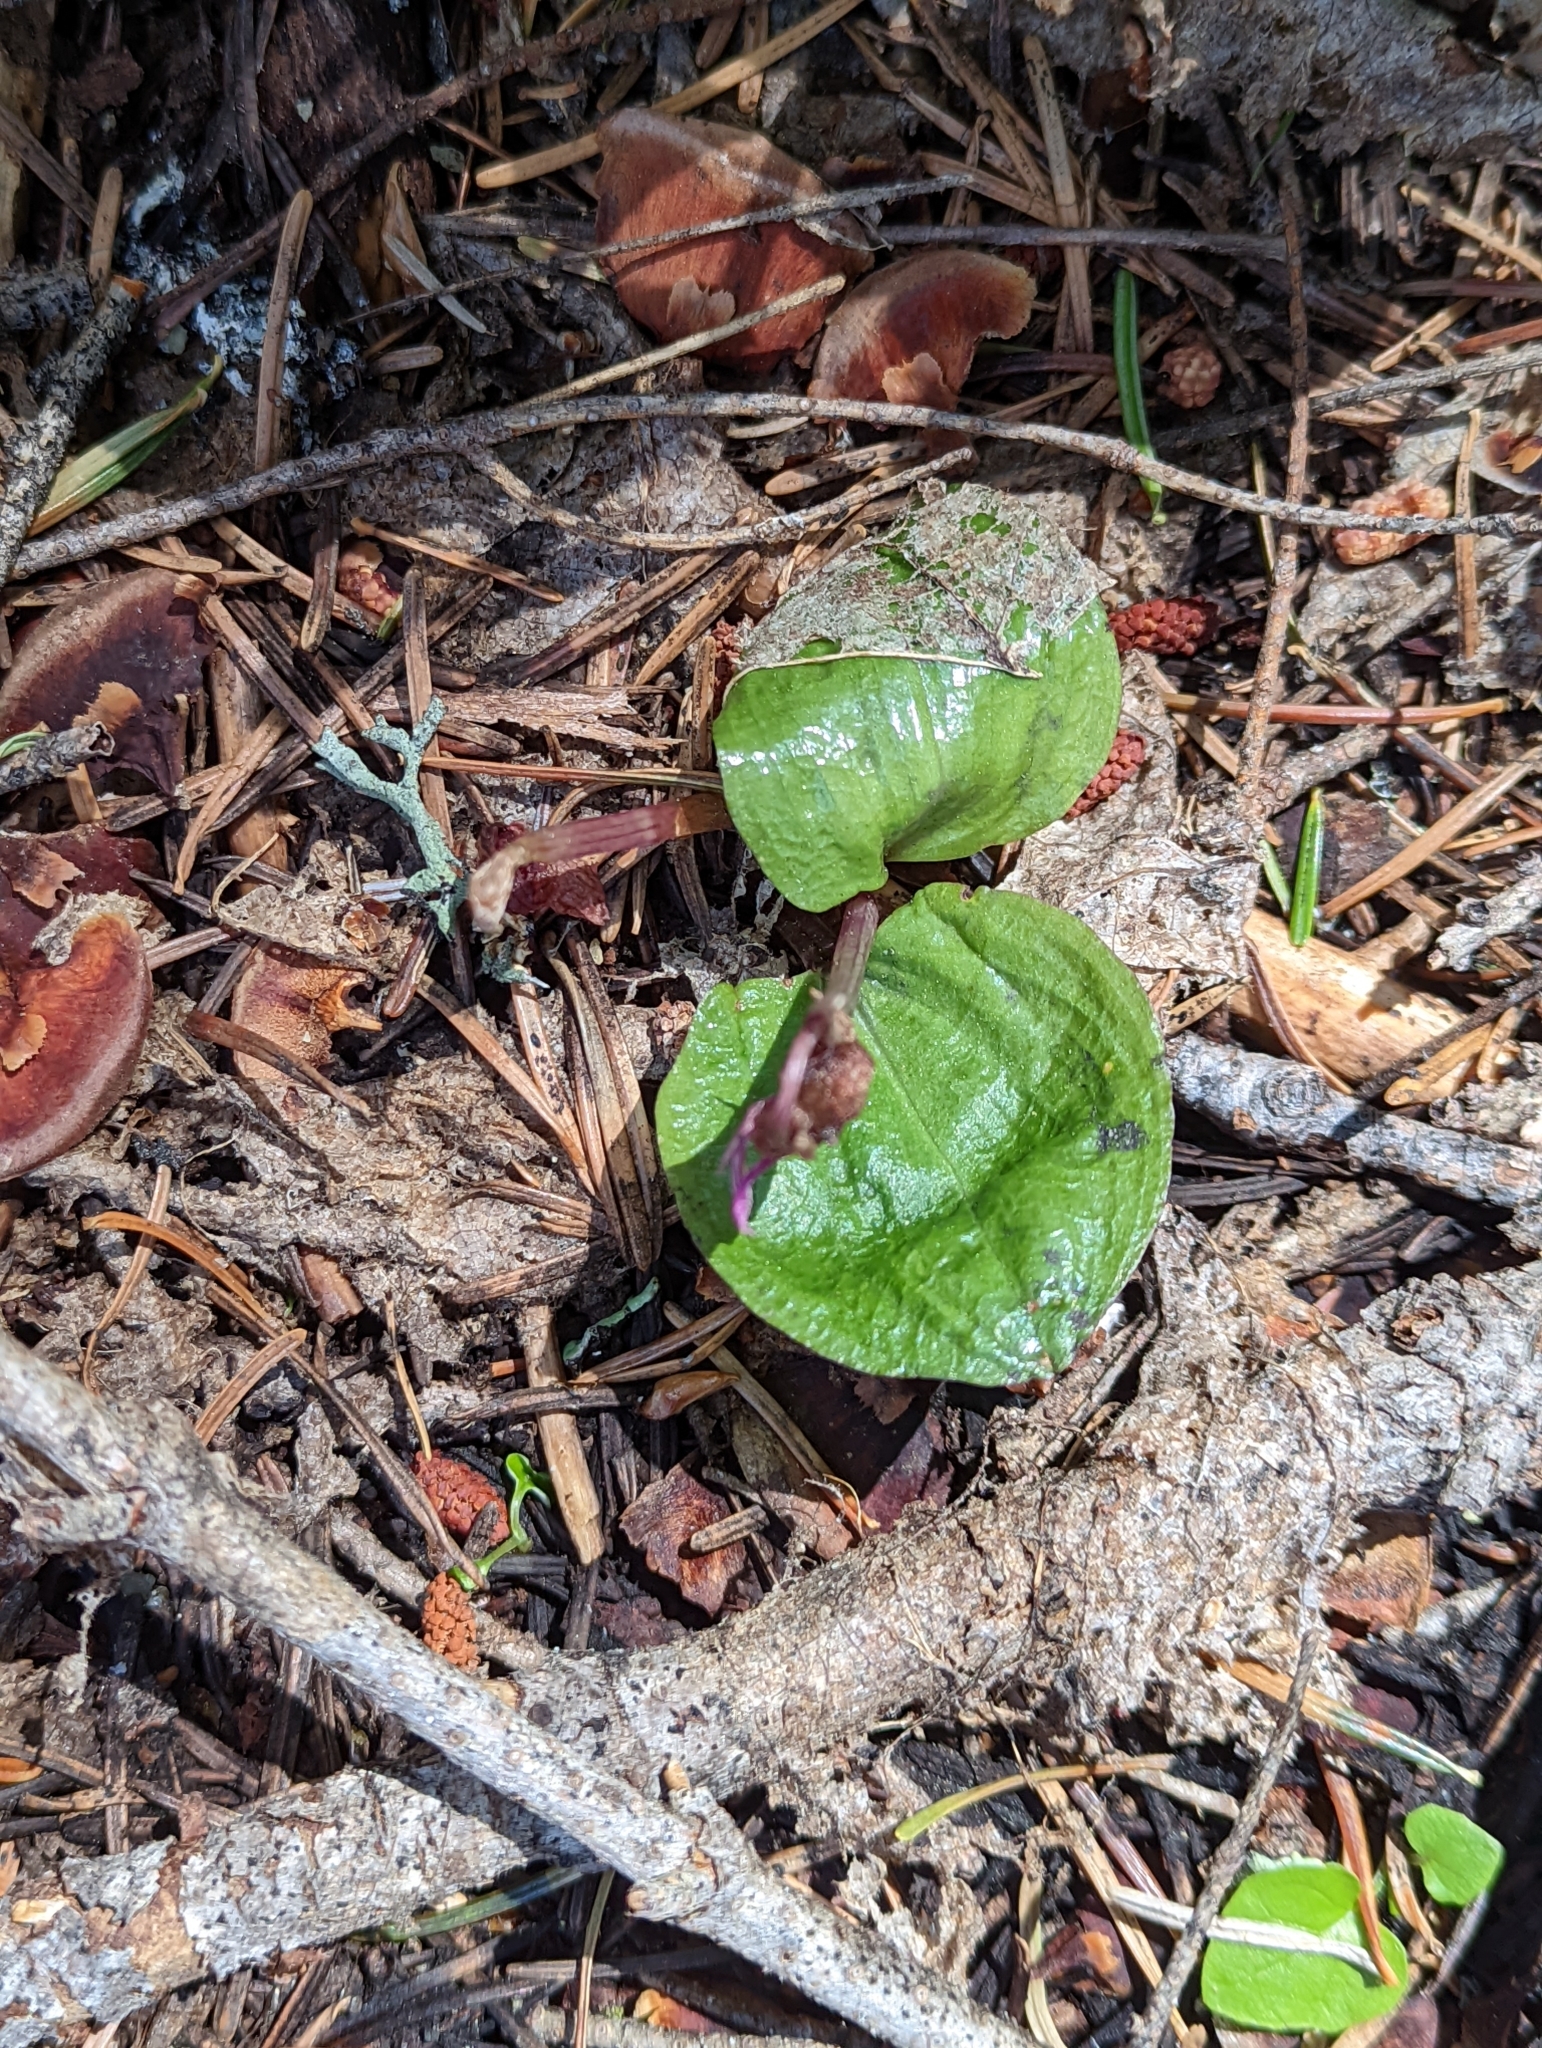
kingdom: Plantae
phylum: Tracheophyta
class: Liliopsida
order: Asparagales
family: Orchidaceae
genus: Calypso
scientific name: Calypso bulbosa
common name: Calypso
